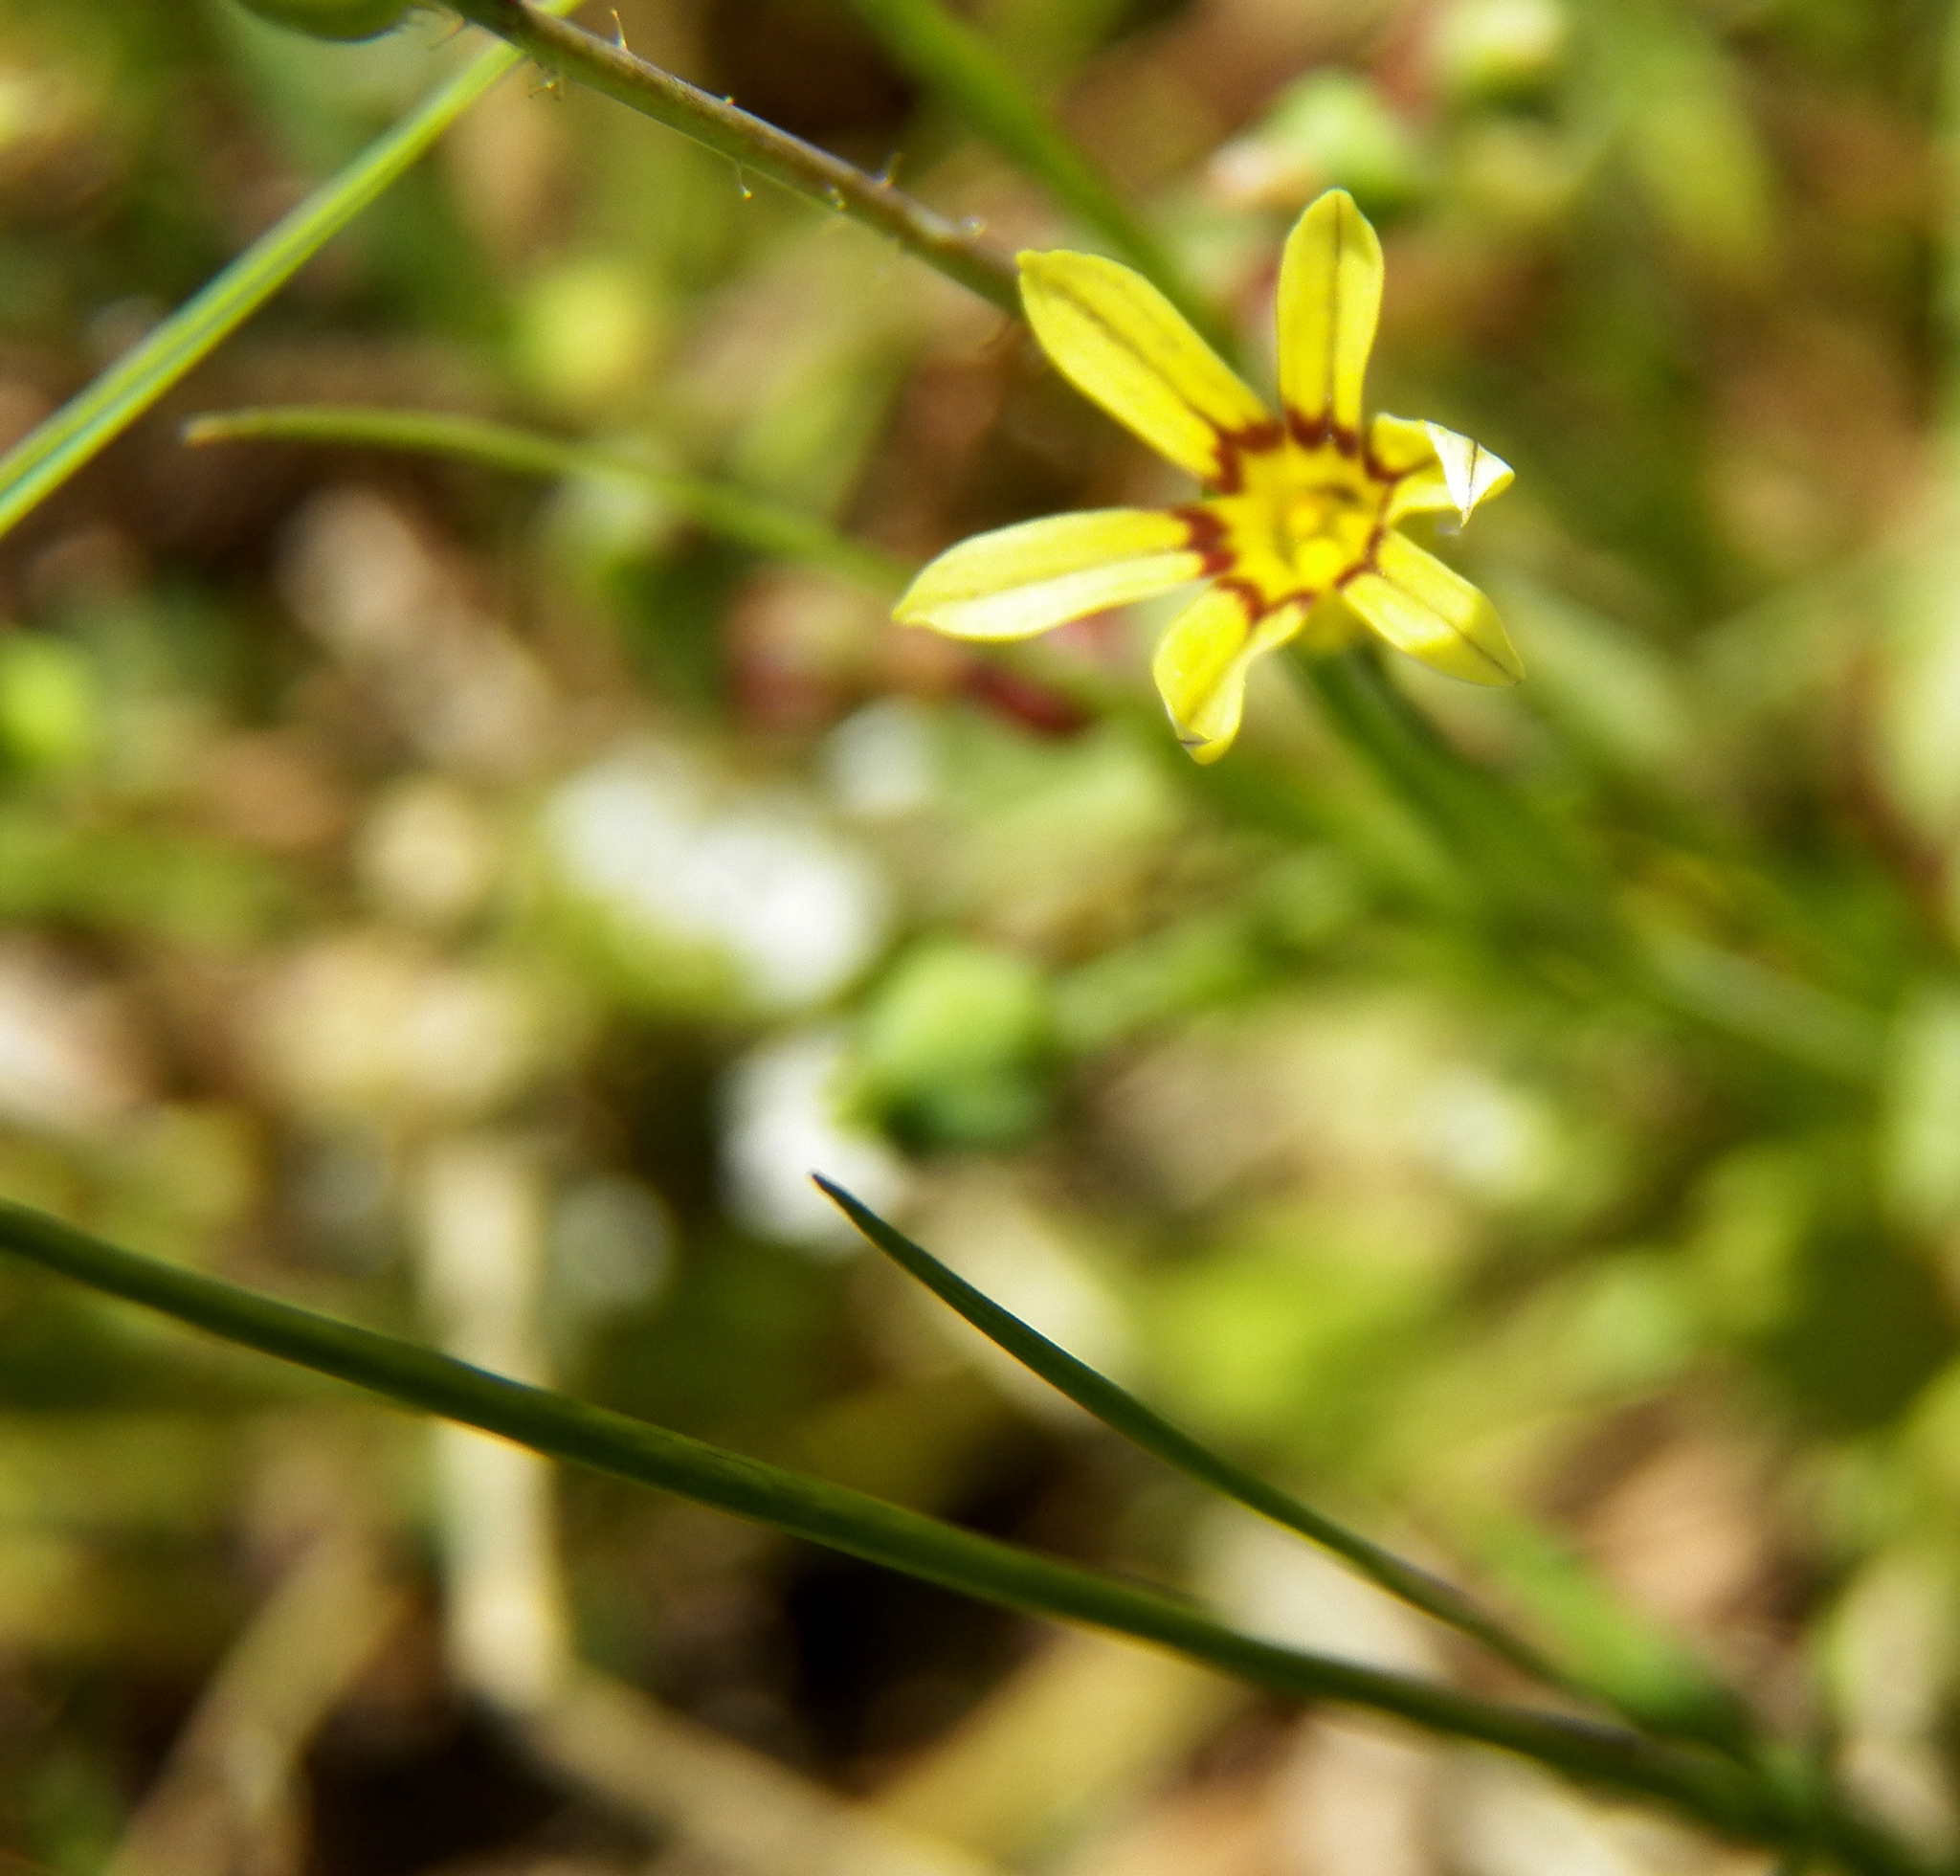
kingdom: Plantae
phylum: Tracheophyta
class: Liliopsida
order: Asparagales
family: Iridaceae
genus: Sisyrinchium
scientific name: Sisyrinchium micranthum
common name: Bermuda pigroot
